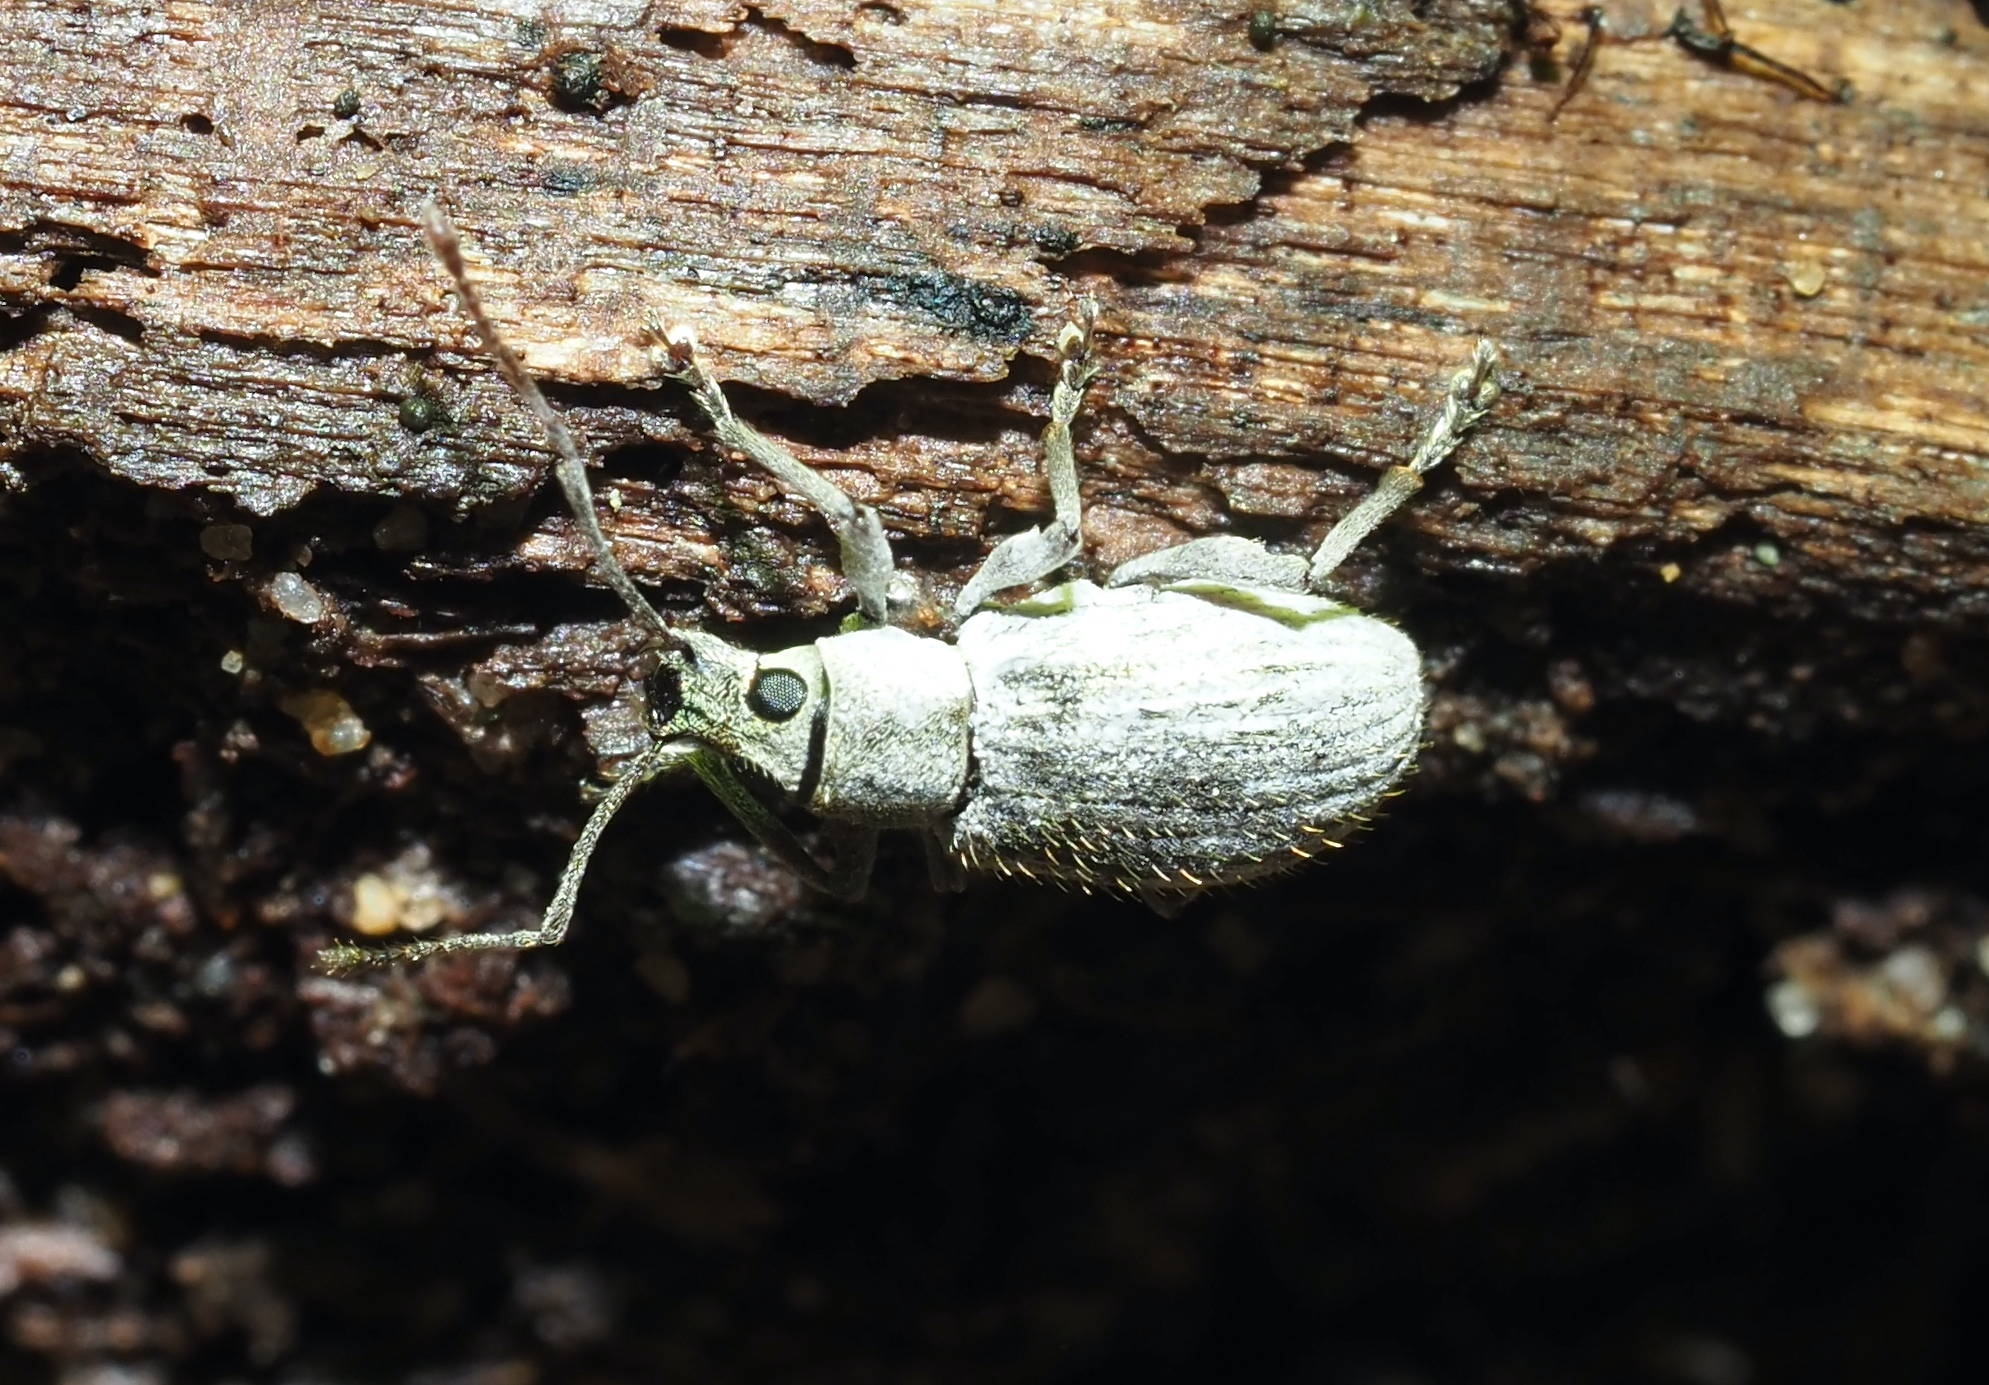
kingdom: Animalia
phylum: Arthropoda
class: Insecta
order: Coleoptera
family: Curculionidae
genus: Cyrtepistomus
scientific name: Cyrtepistomus castaneus
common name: Weevil
